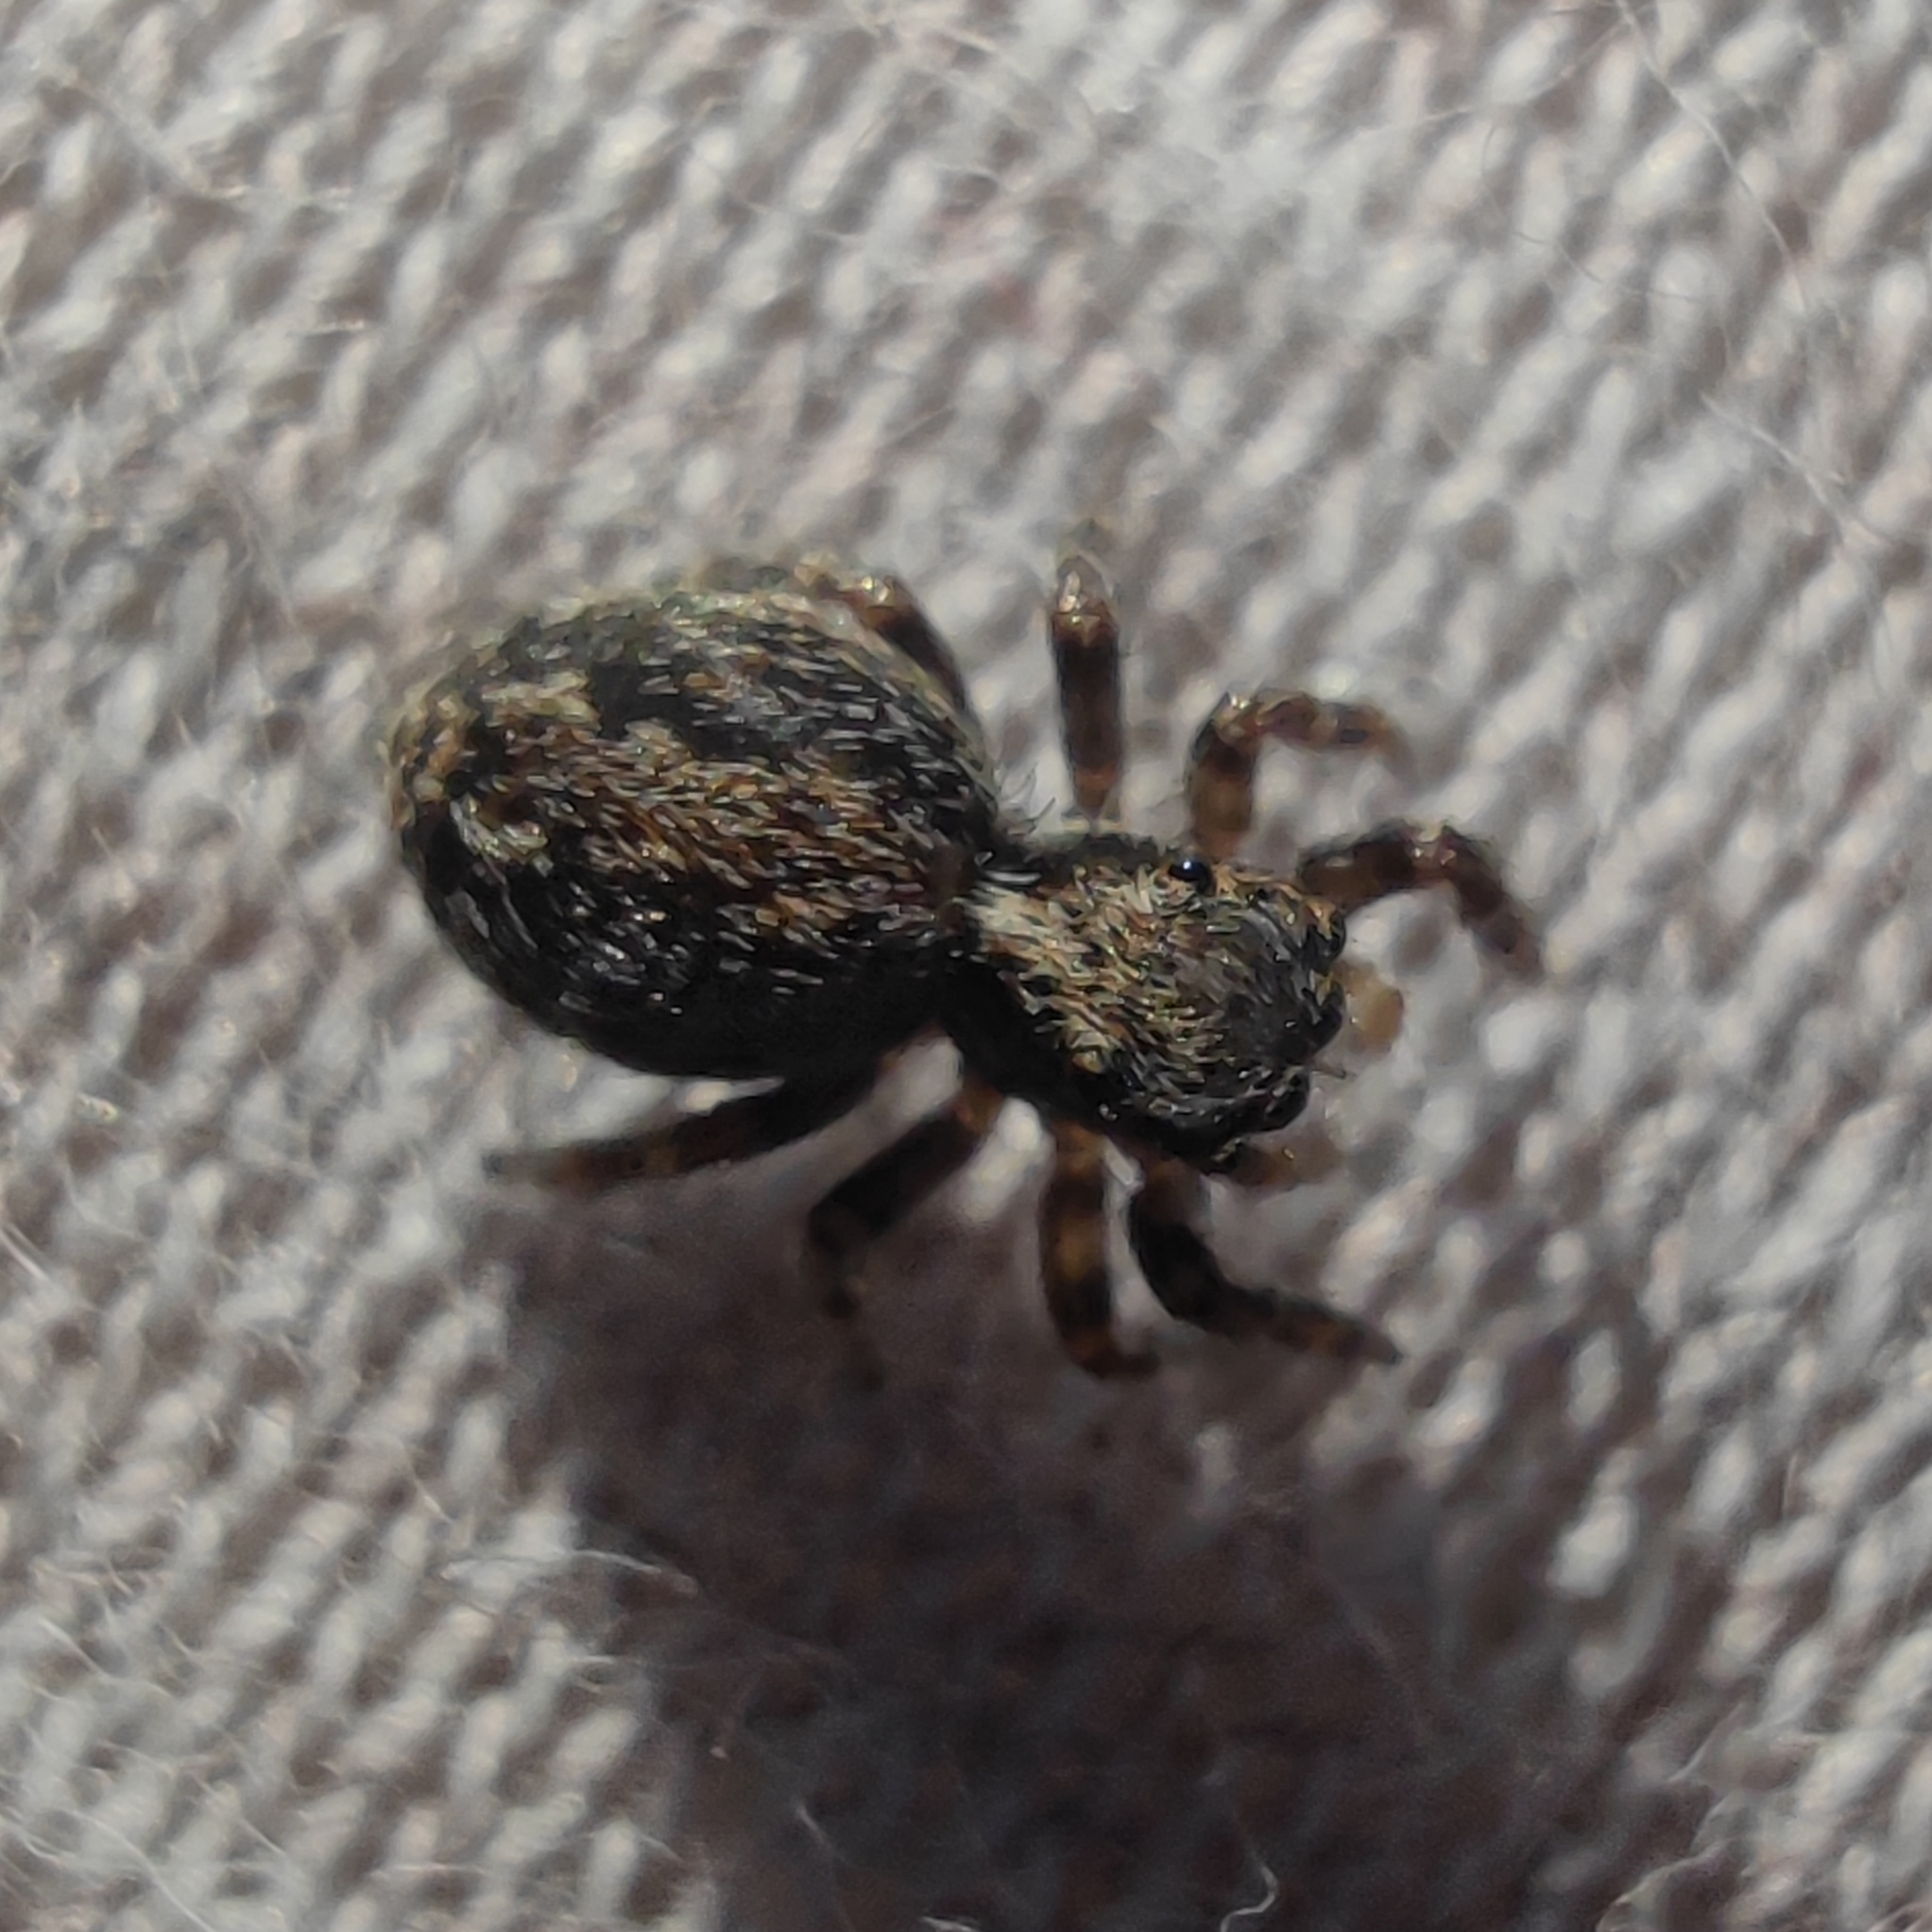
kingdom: Animalia
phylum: Arthropoda
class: Arachnida
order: Araneae
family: Salticidae
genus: Pseudeuophrys
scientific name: Pseudeuophrys lanigera
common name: Jumping spider
